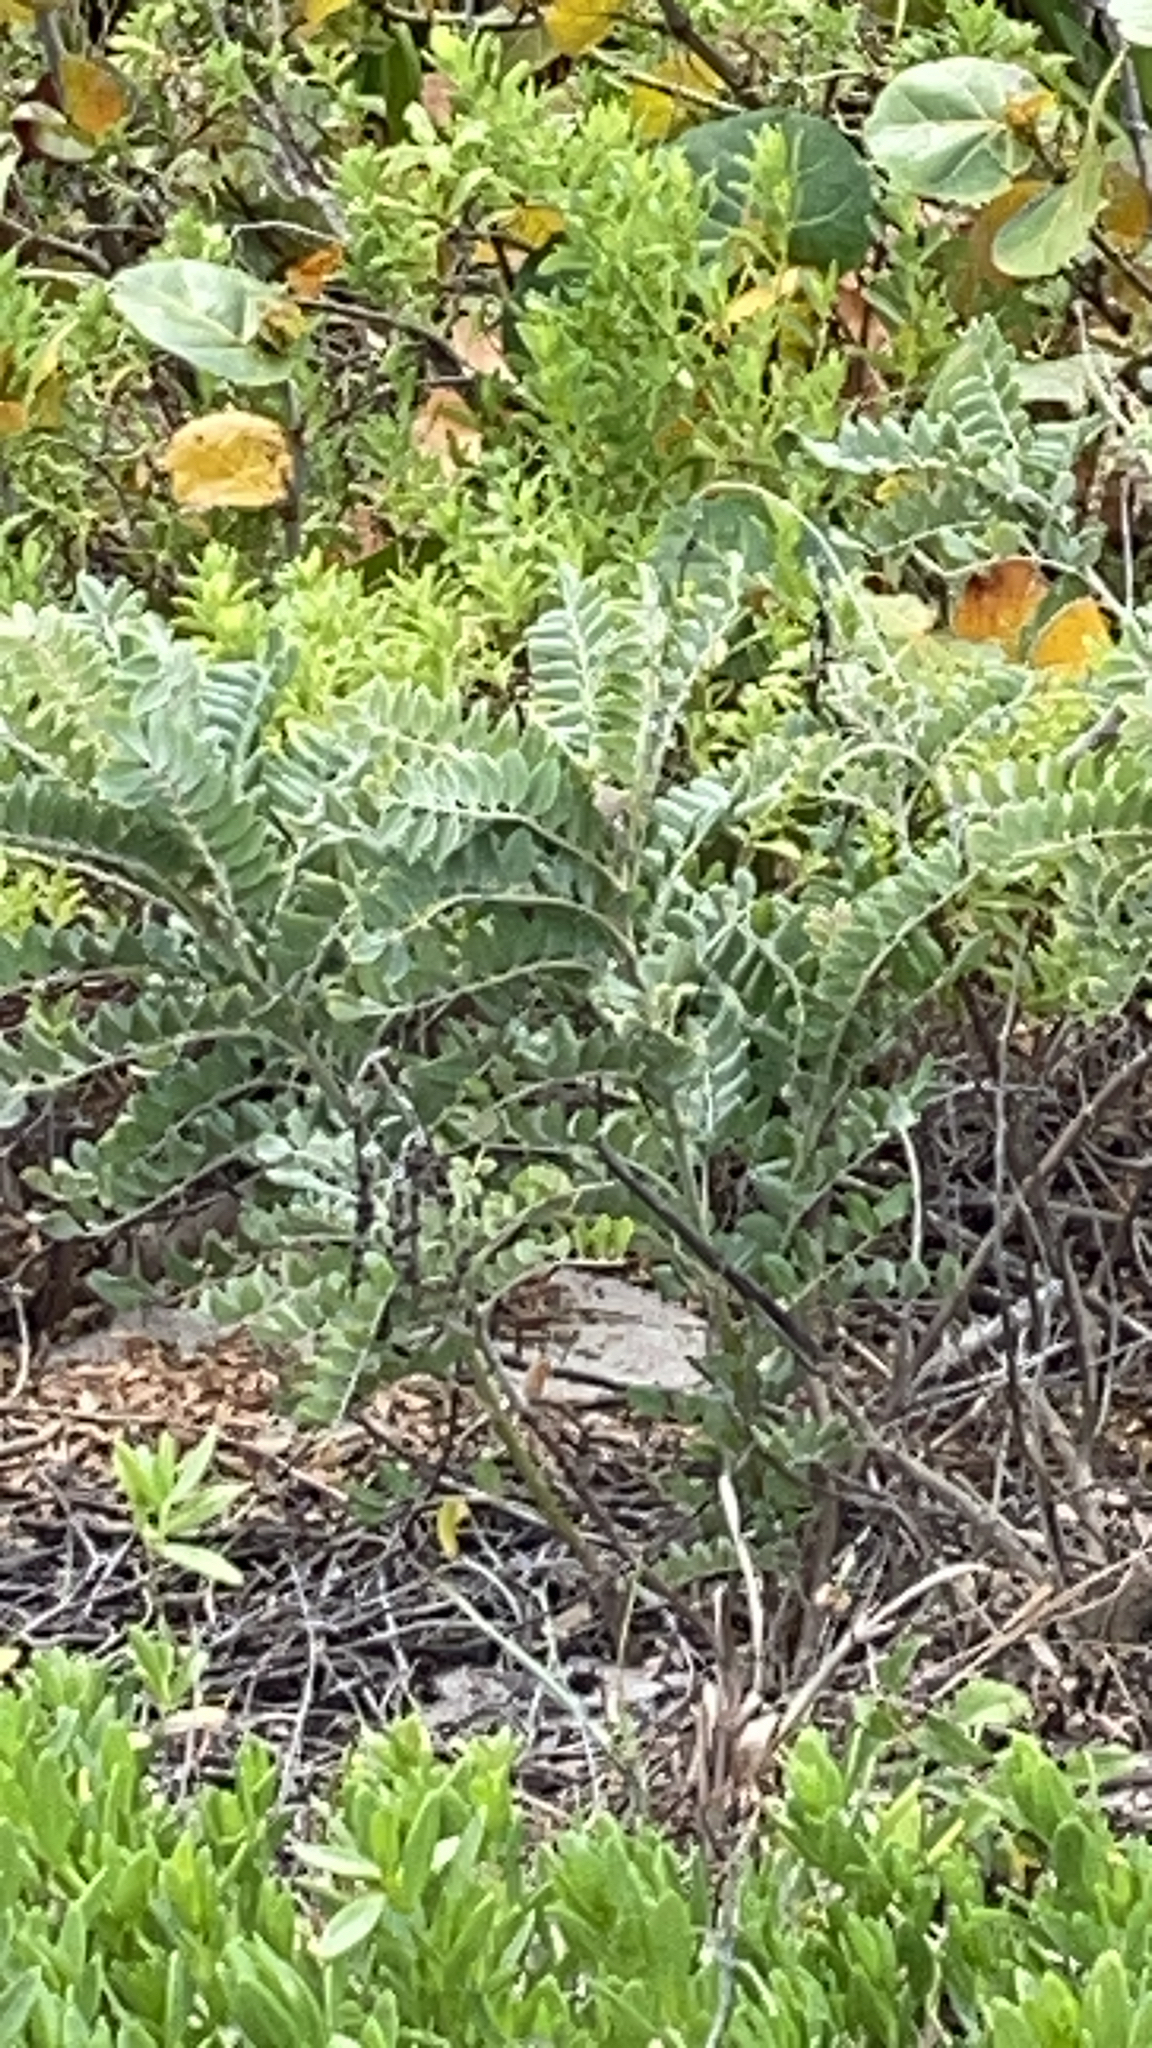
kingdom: Plantae
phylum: Tracheophyta
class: Magnoliopsida
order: Fabales
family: Fabaceae
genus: Sophora
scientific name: Sophora tomentosa
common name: Yellow necklacepod
